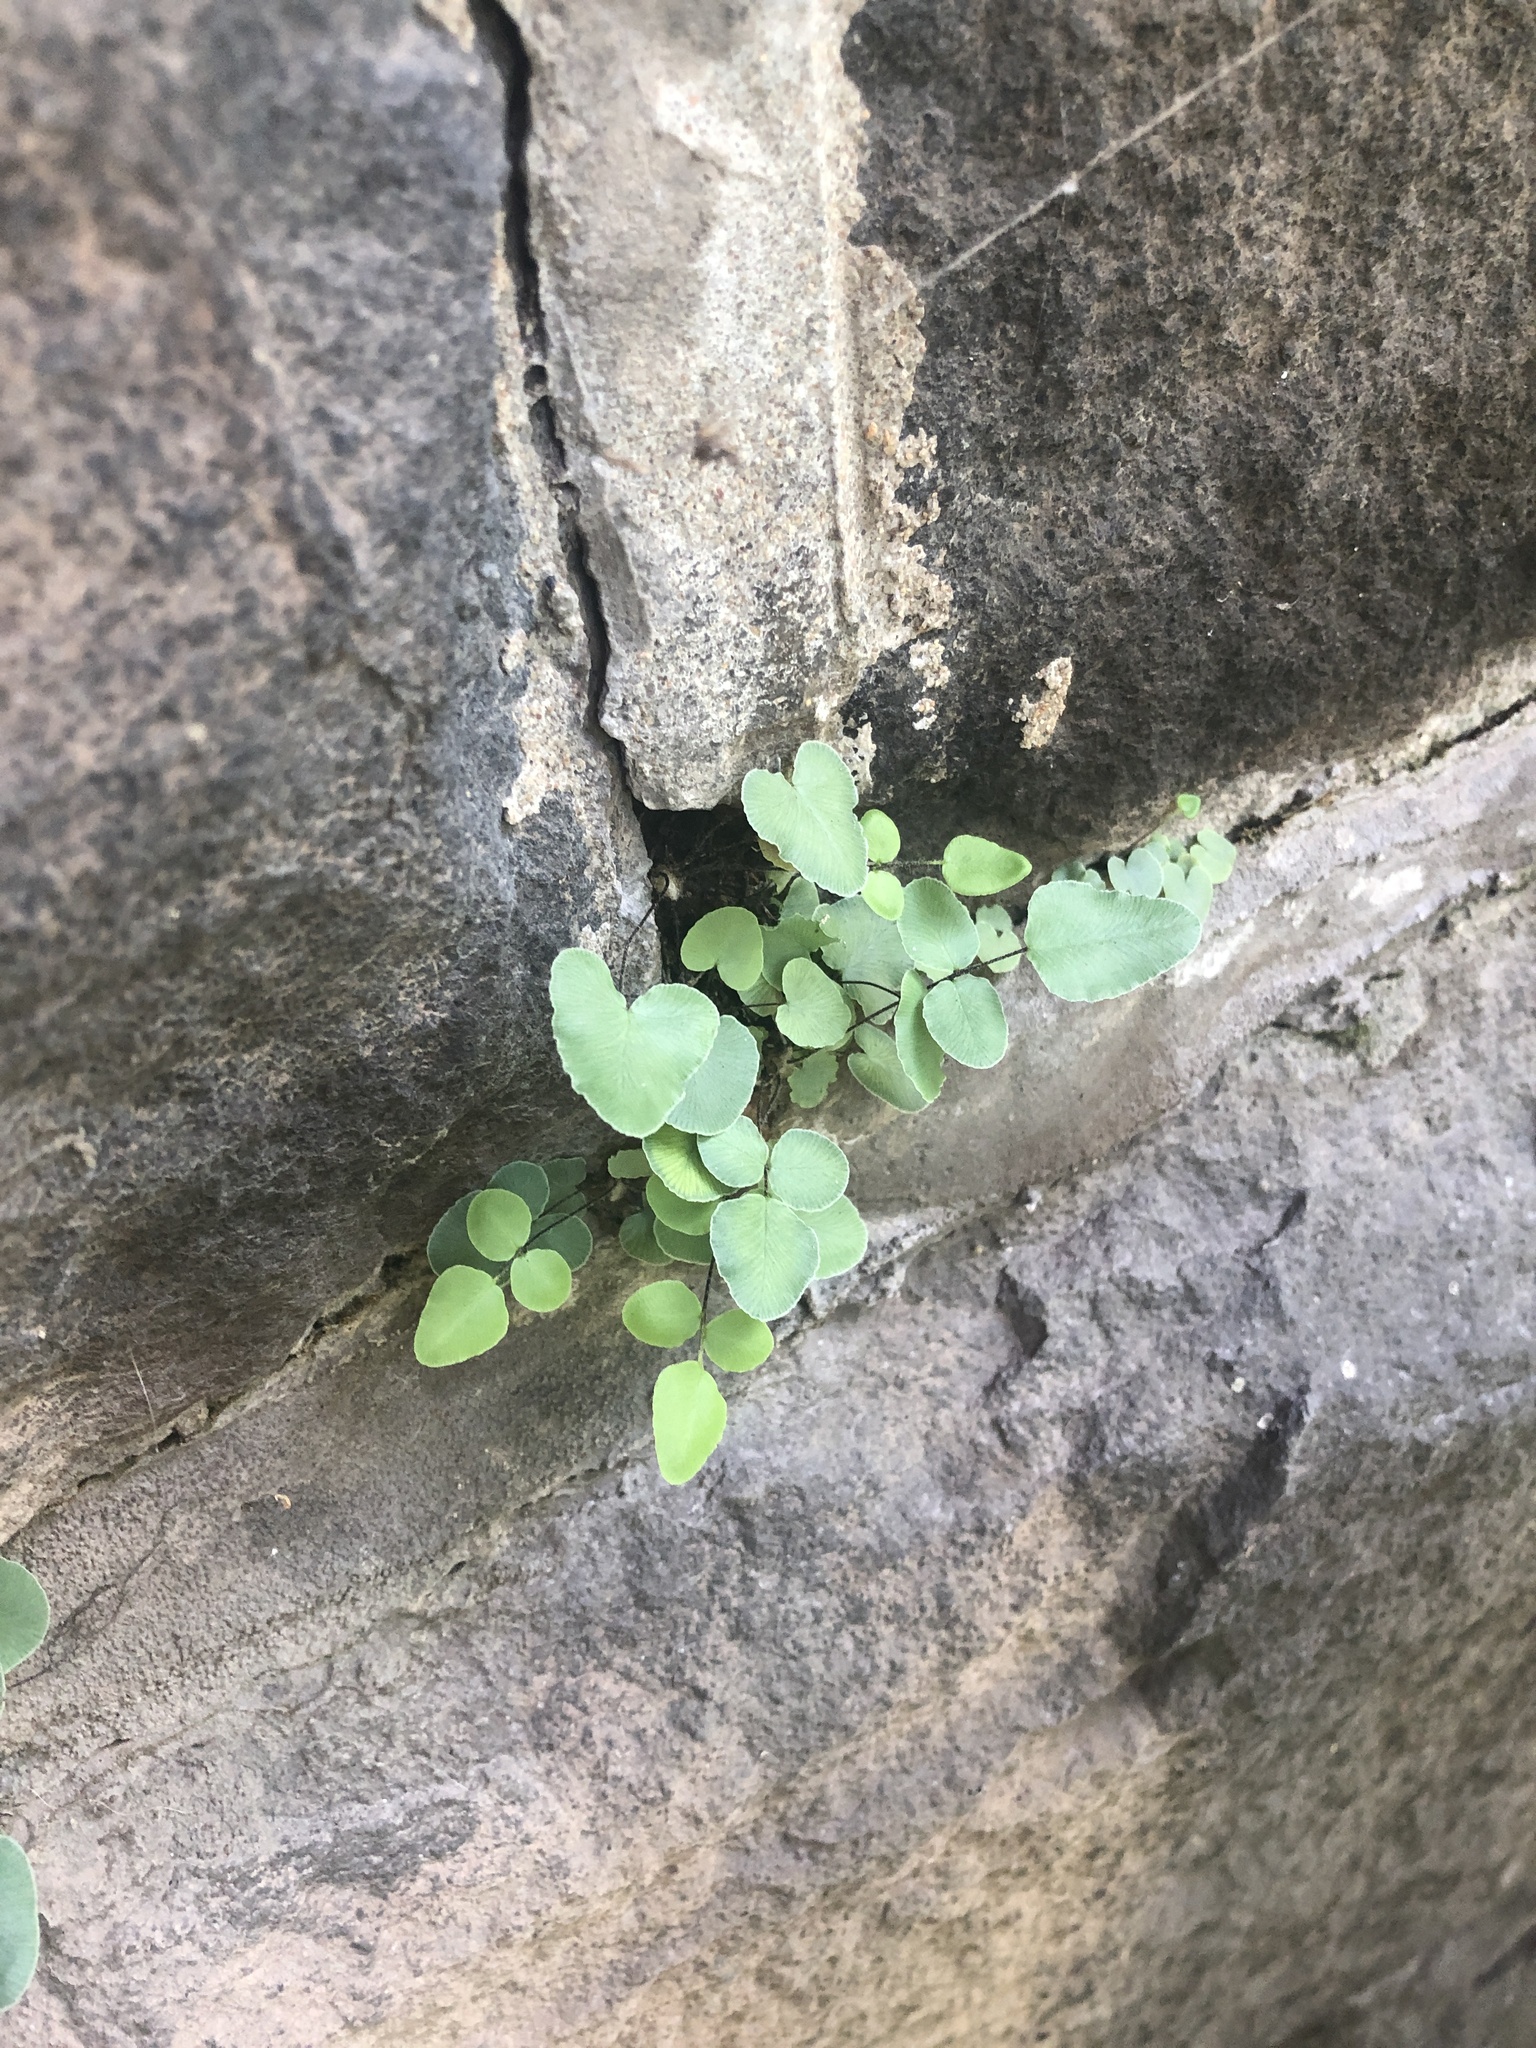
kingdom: Plantae
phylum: Tracheophyta
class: Polypodiopsida
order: Polypodiales
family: Pteridaceae
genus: Pellaea
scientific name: Pellaea atropurpurea
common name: Hairy cliffbrake
